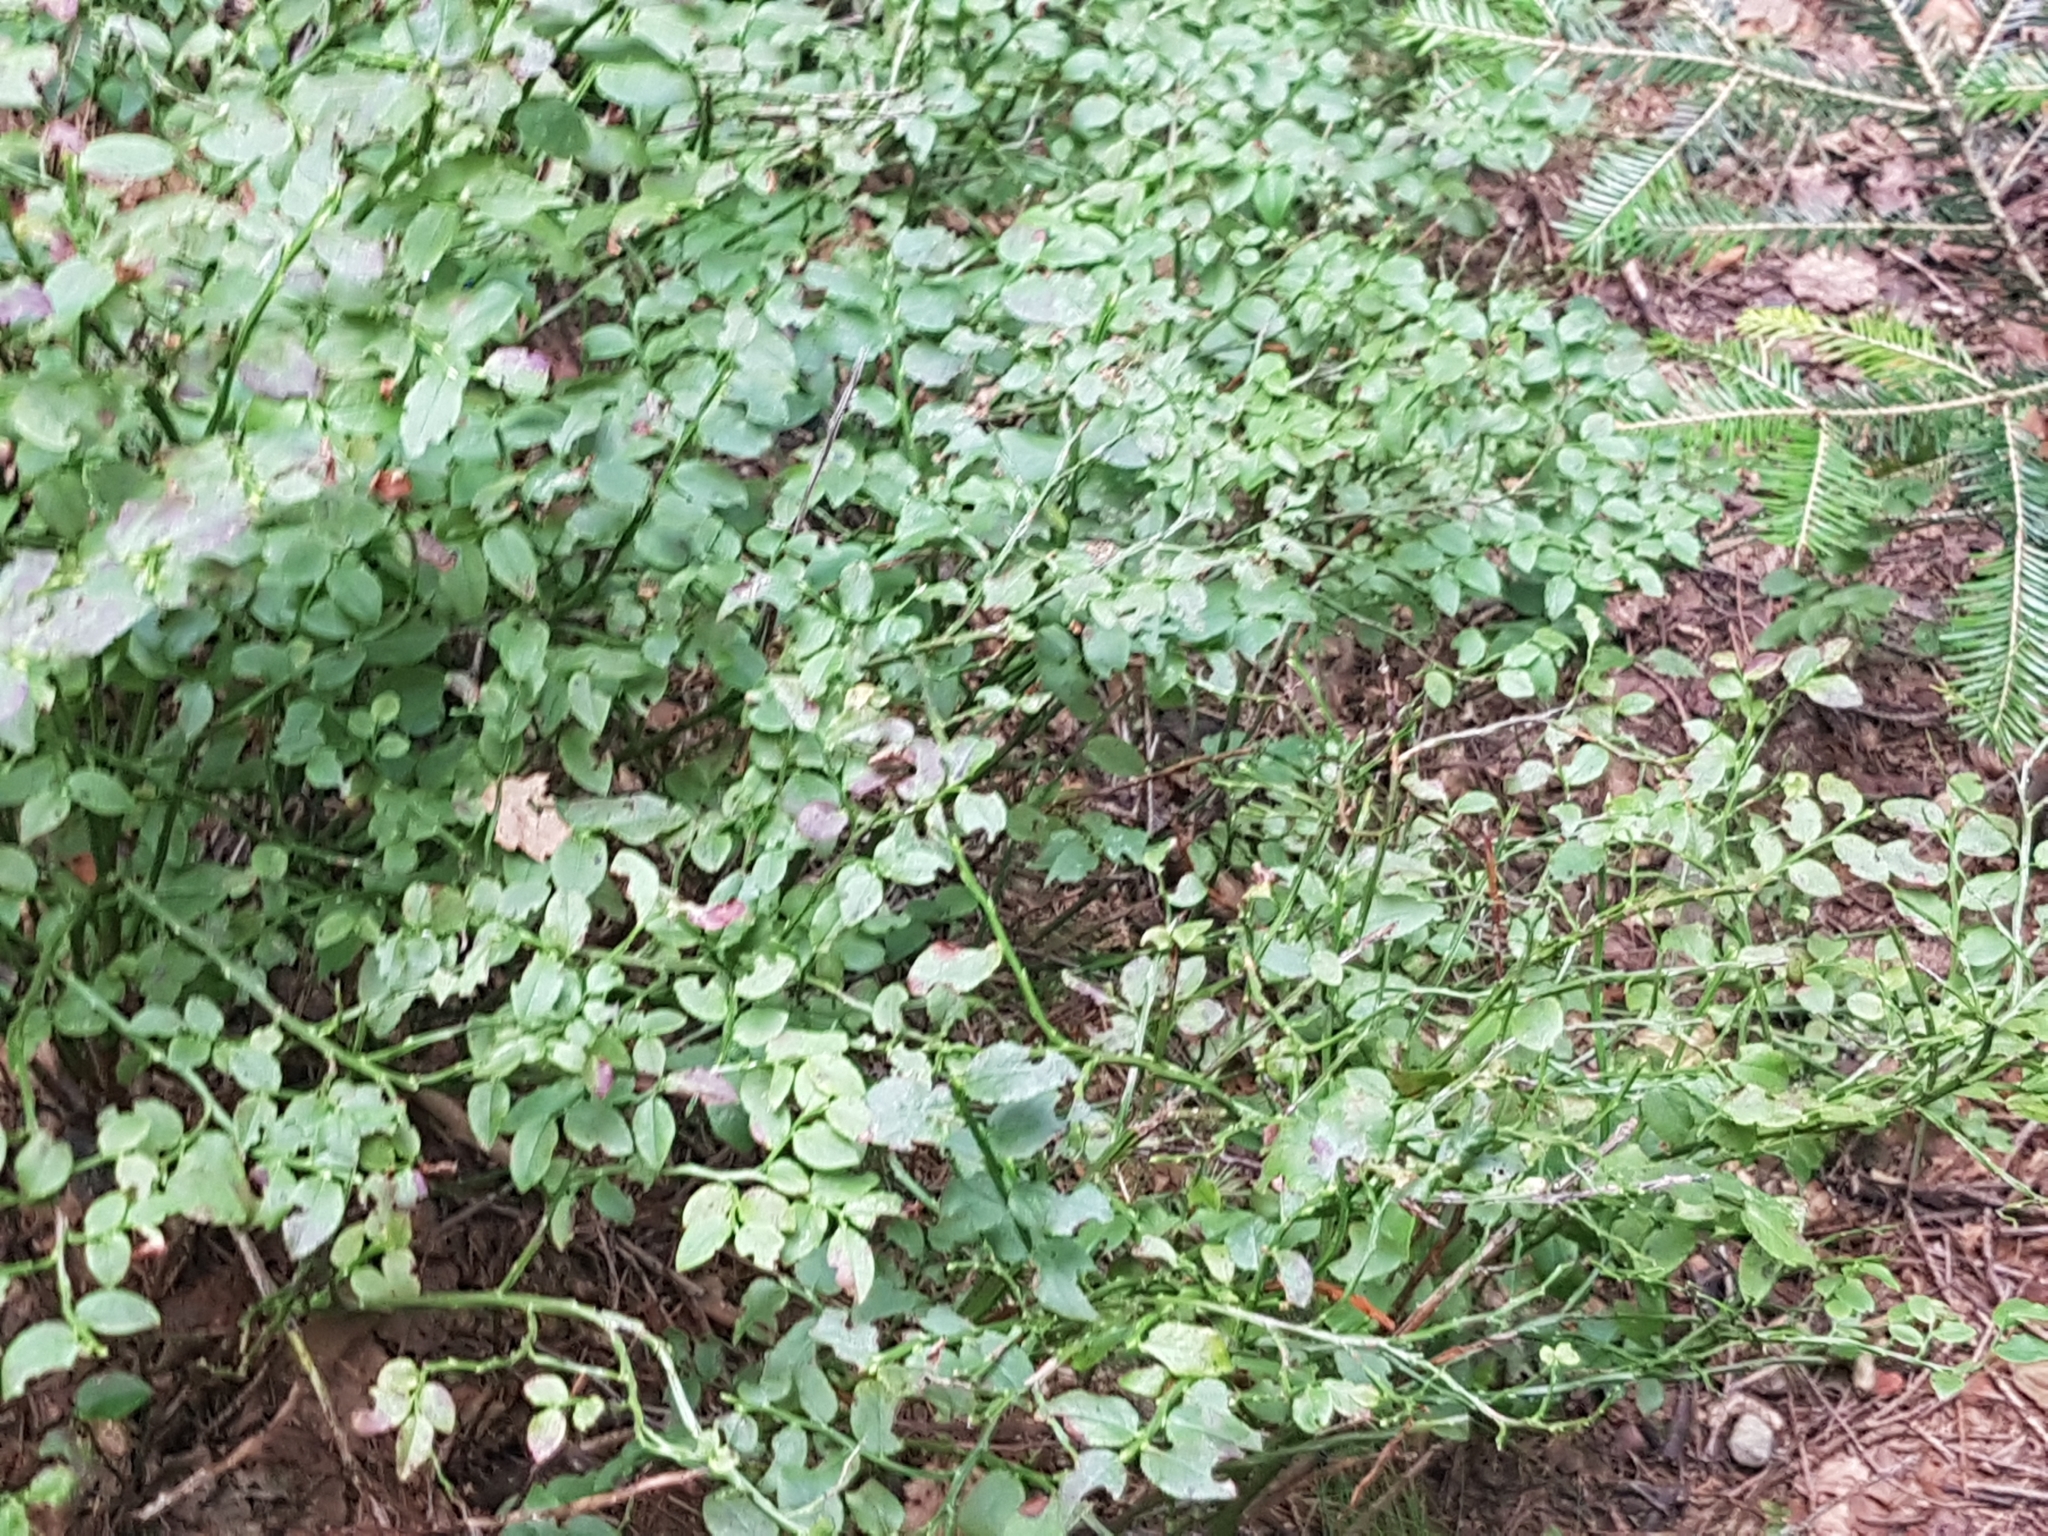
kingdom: Plantae
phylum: Tracheophyta
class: Magnoliopsida
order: Ericales
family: Ericaceae
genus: Vaccinium
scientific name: Vaccinium myrtillus
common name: Bilberry
